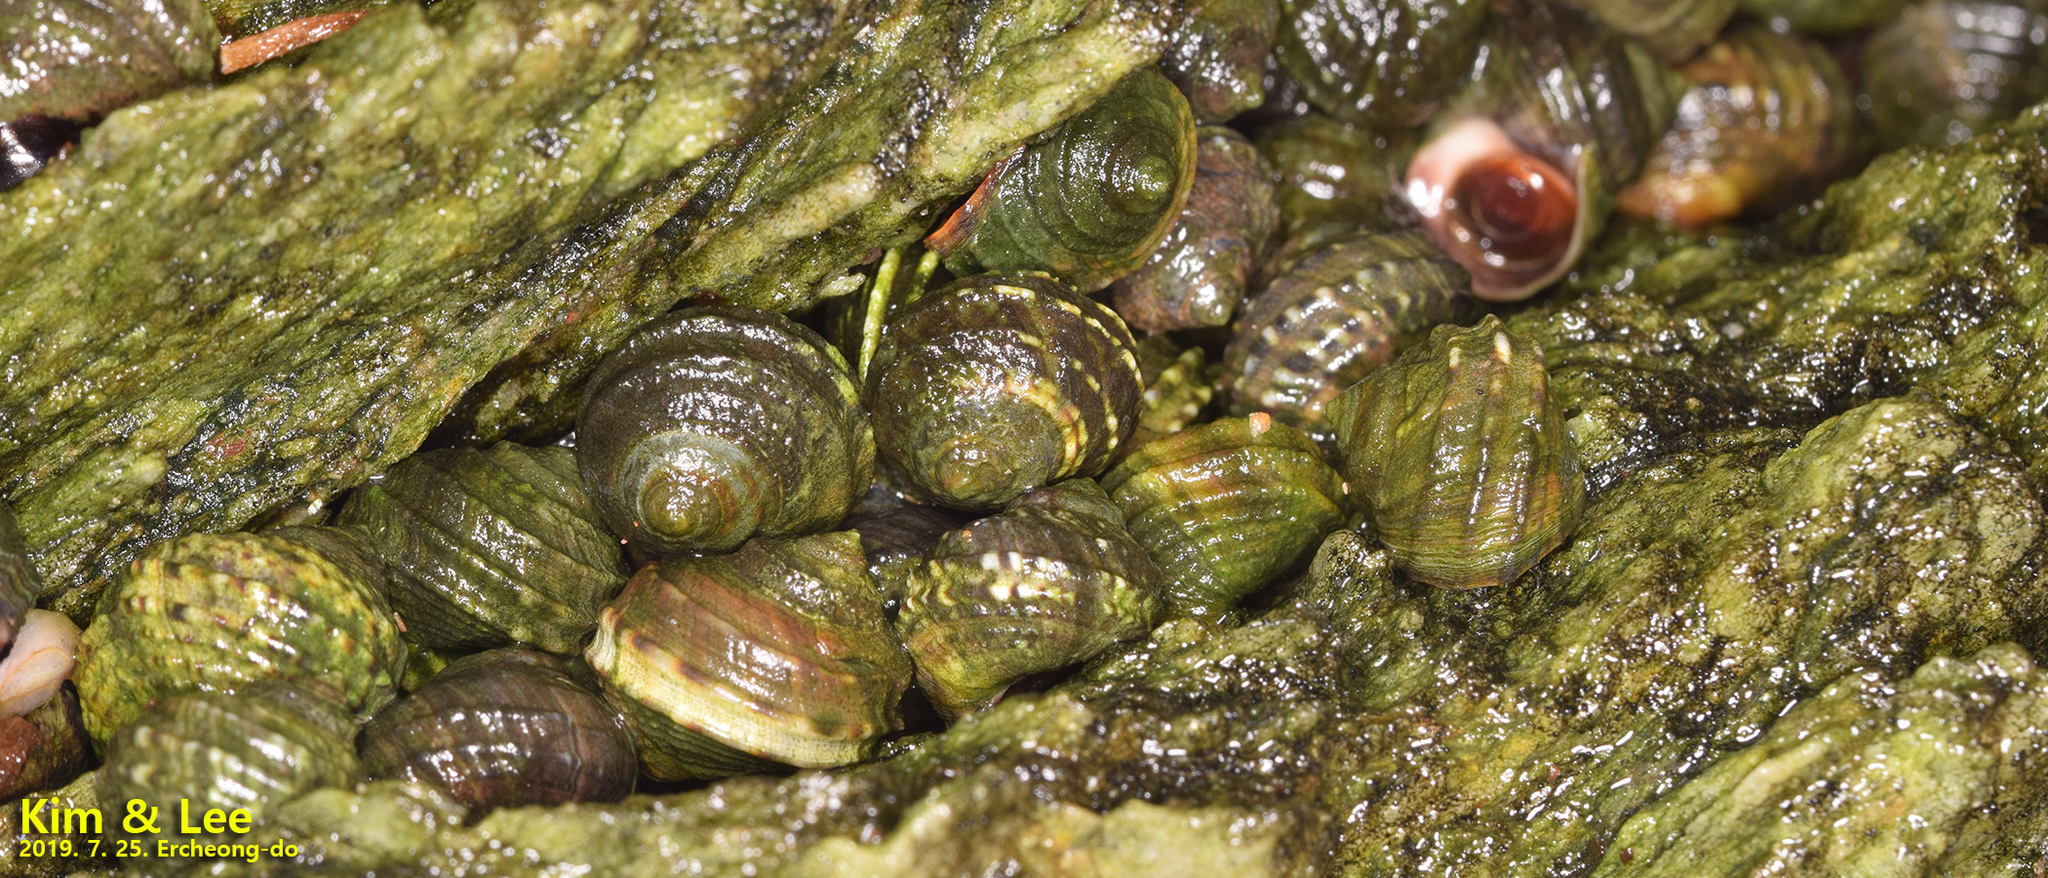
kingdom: Animalia
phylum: Mollusca
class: Gastropoda
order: Littorinimorpha
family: Littorinidae
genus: Littorina
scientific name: Littorina brevicula
